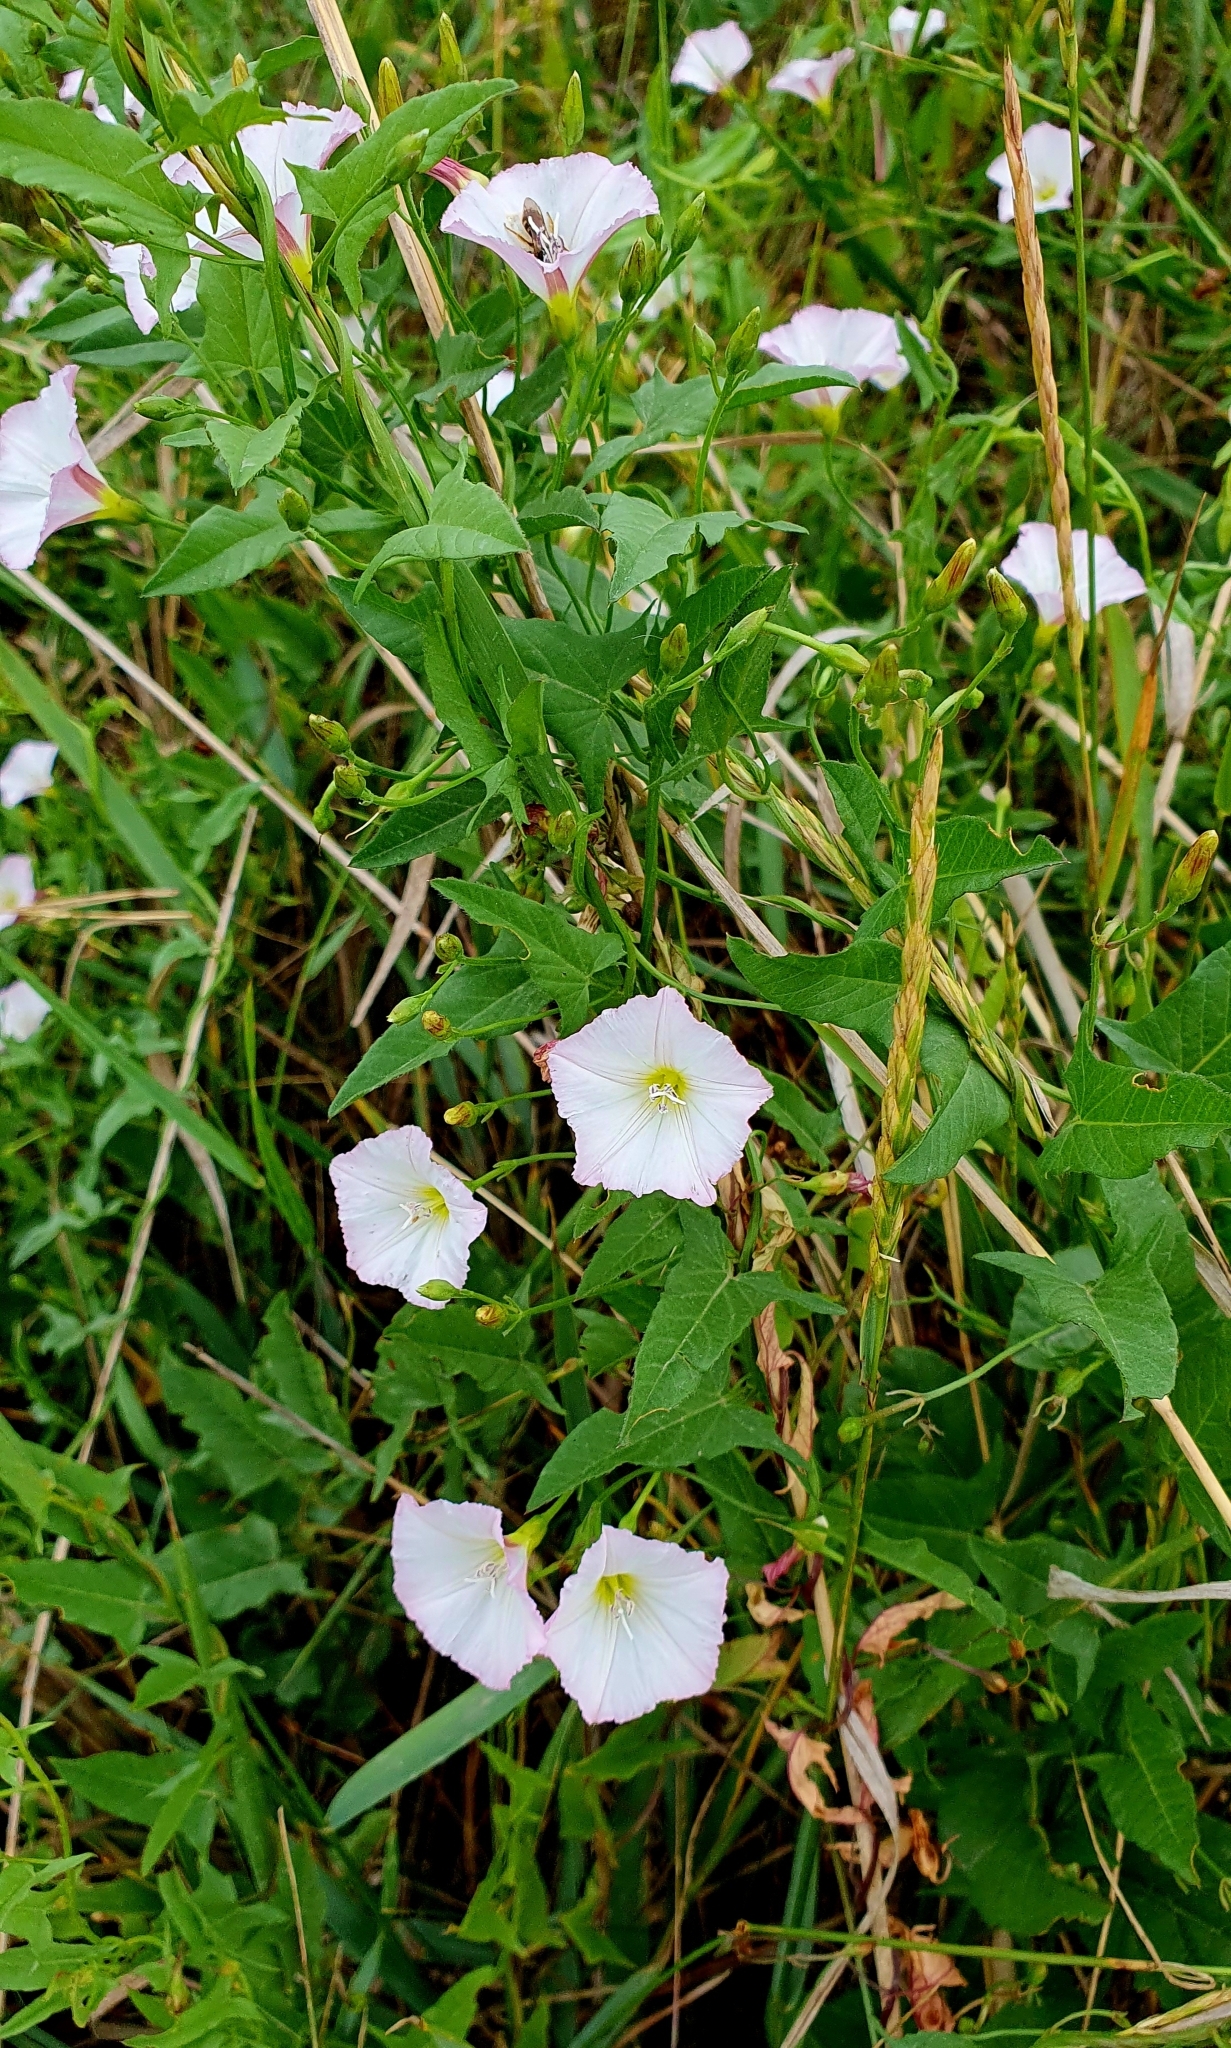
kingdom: Plantae
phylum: Tracheophyta
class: Magnoliopsida
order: Solanales
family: Convolvulaceae
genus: Convolvulus
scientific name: Convolvulus arvensis
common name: Field bindweed
